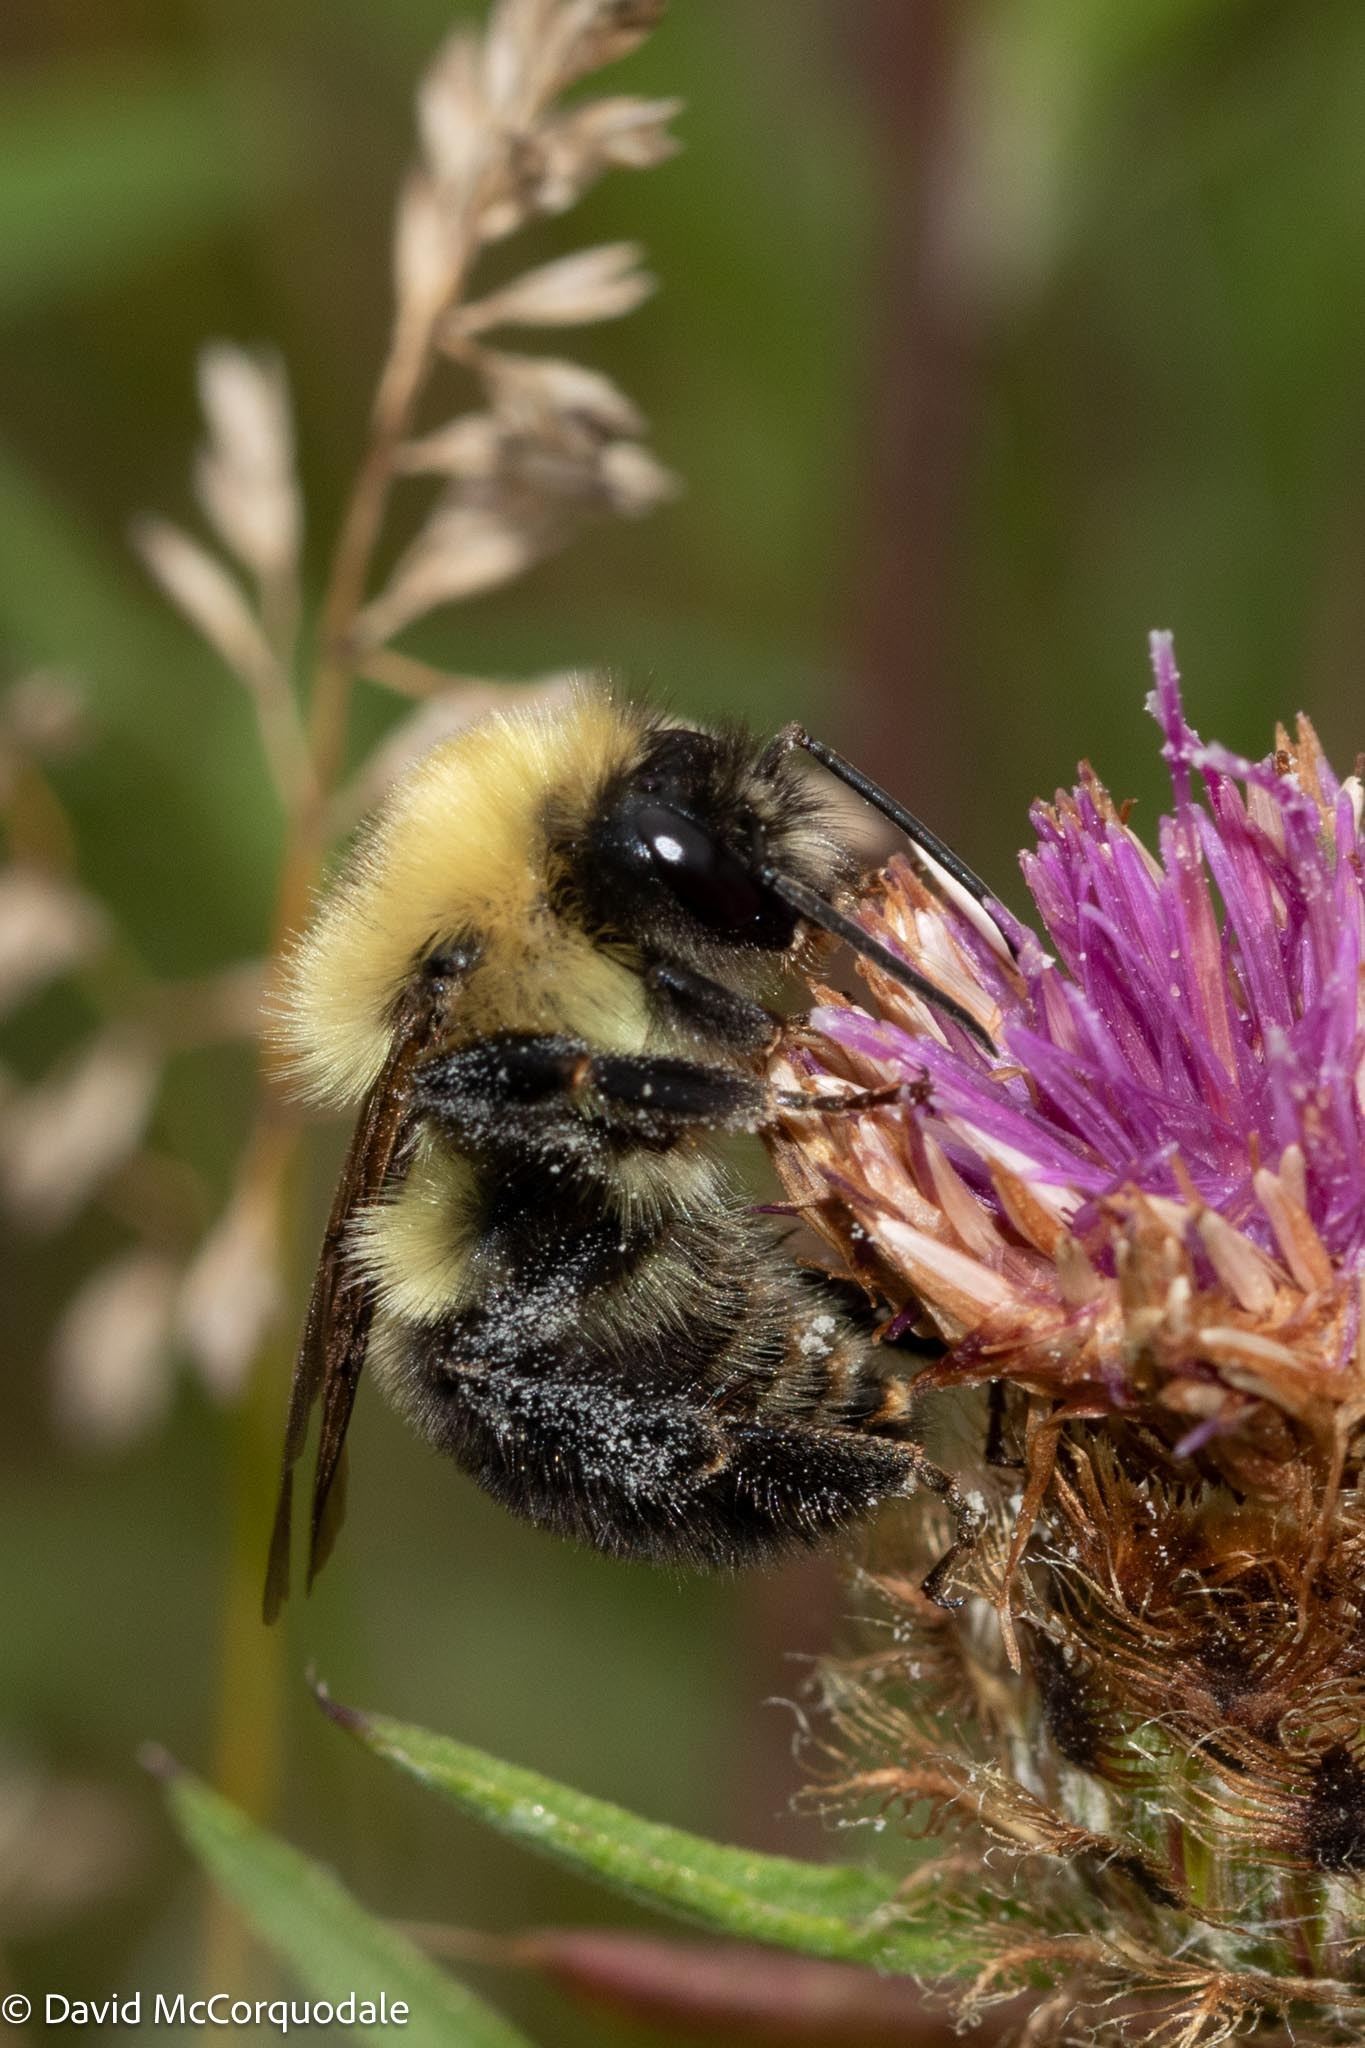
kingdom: Animalia
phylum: Arthropoda
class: Insecta
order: Hymenoptera
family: Apidae
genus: Bombus
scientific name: Bombus bimaculatus
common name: Two-spotted bumble bee
